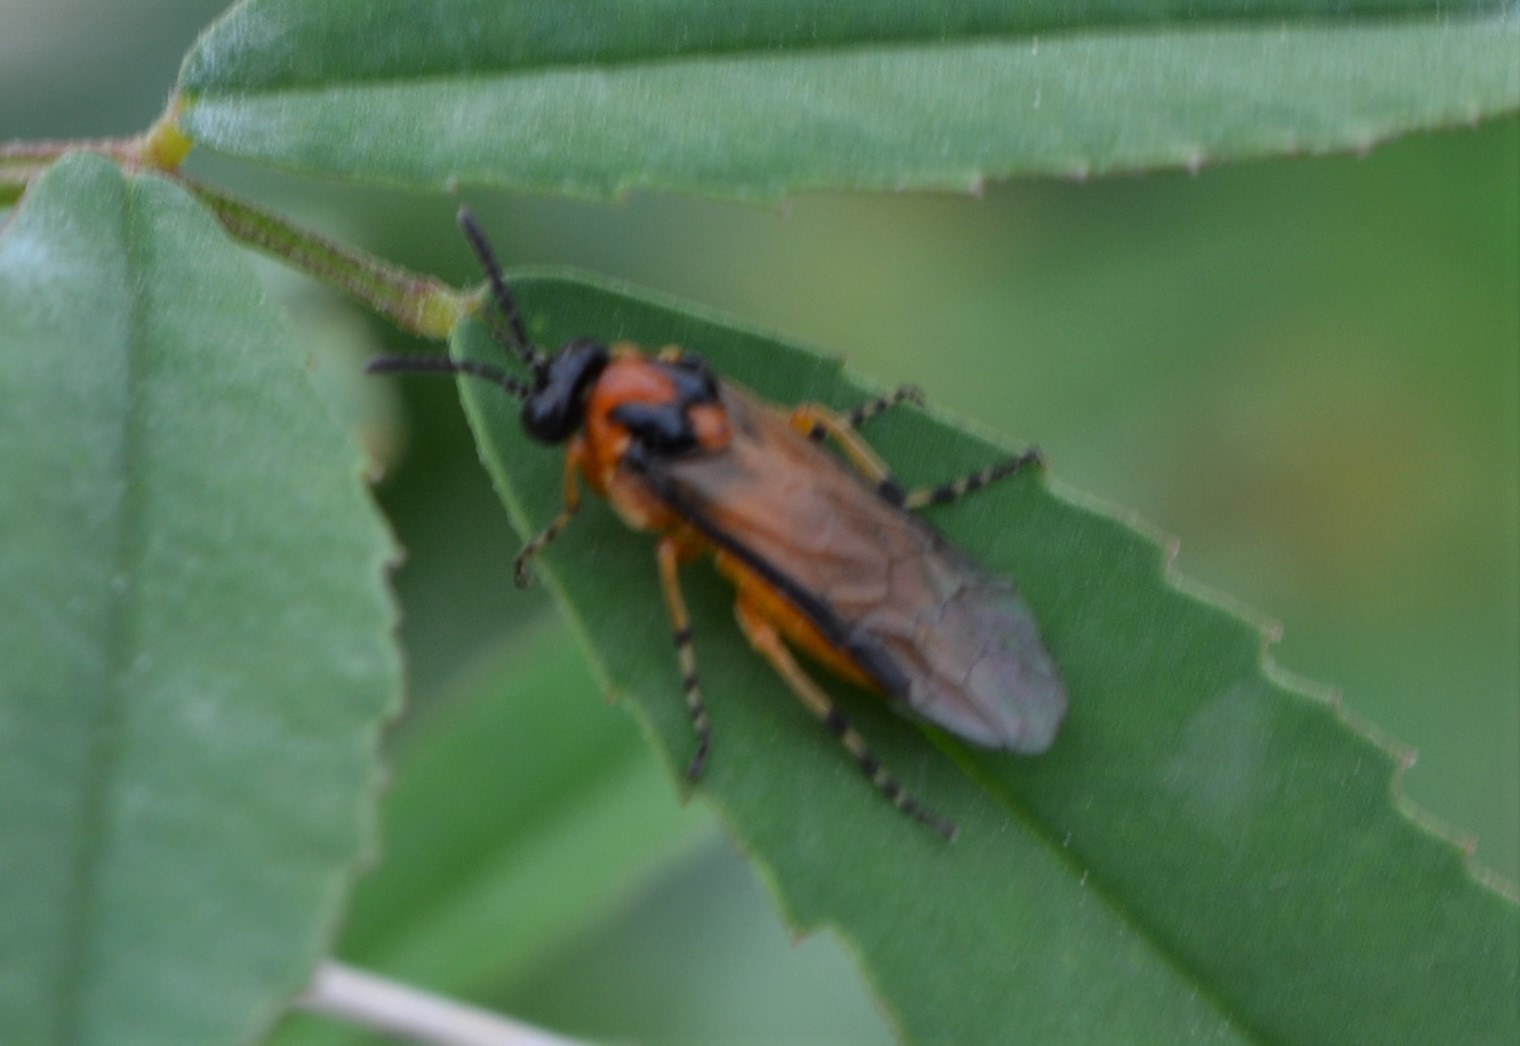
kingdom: Animalia
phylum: Arthropoda
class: Insecta
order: Hymenoptera
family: Tenthredinidae
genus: Athalia
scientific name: Athalia rosae
